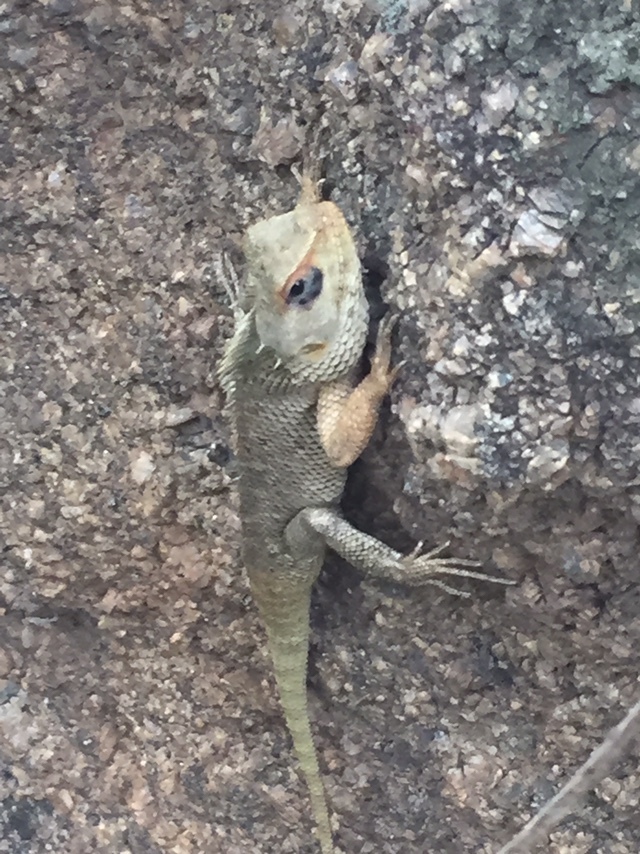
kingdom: Animalia
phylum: Chordata
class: Squamata
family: Agamidae
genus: Calotes
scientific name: Calotes versicolor
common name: Oriental garden lizard
